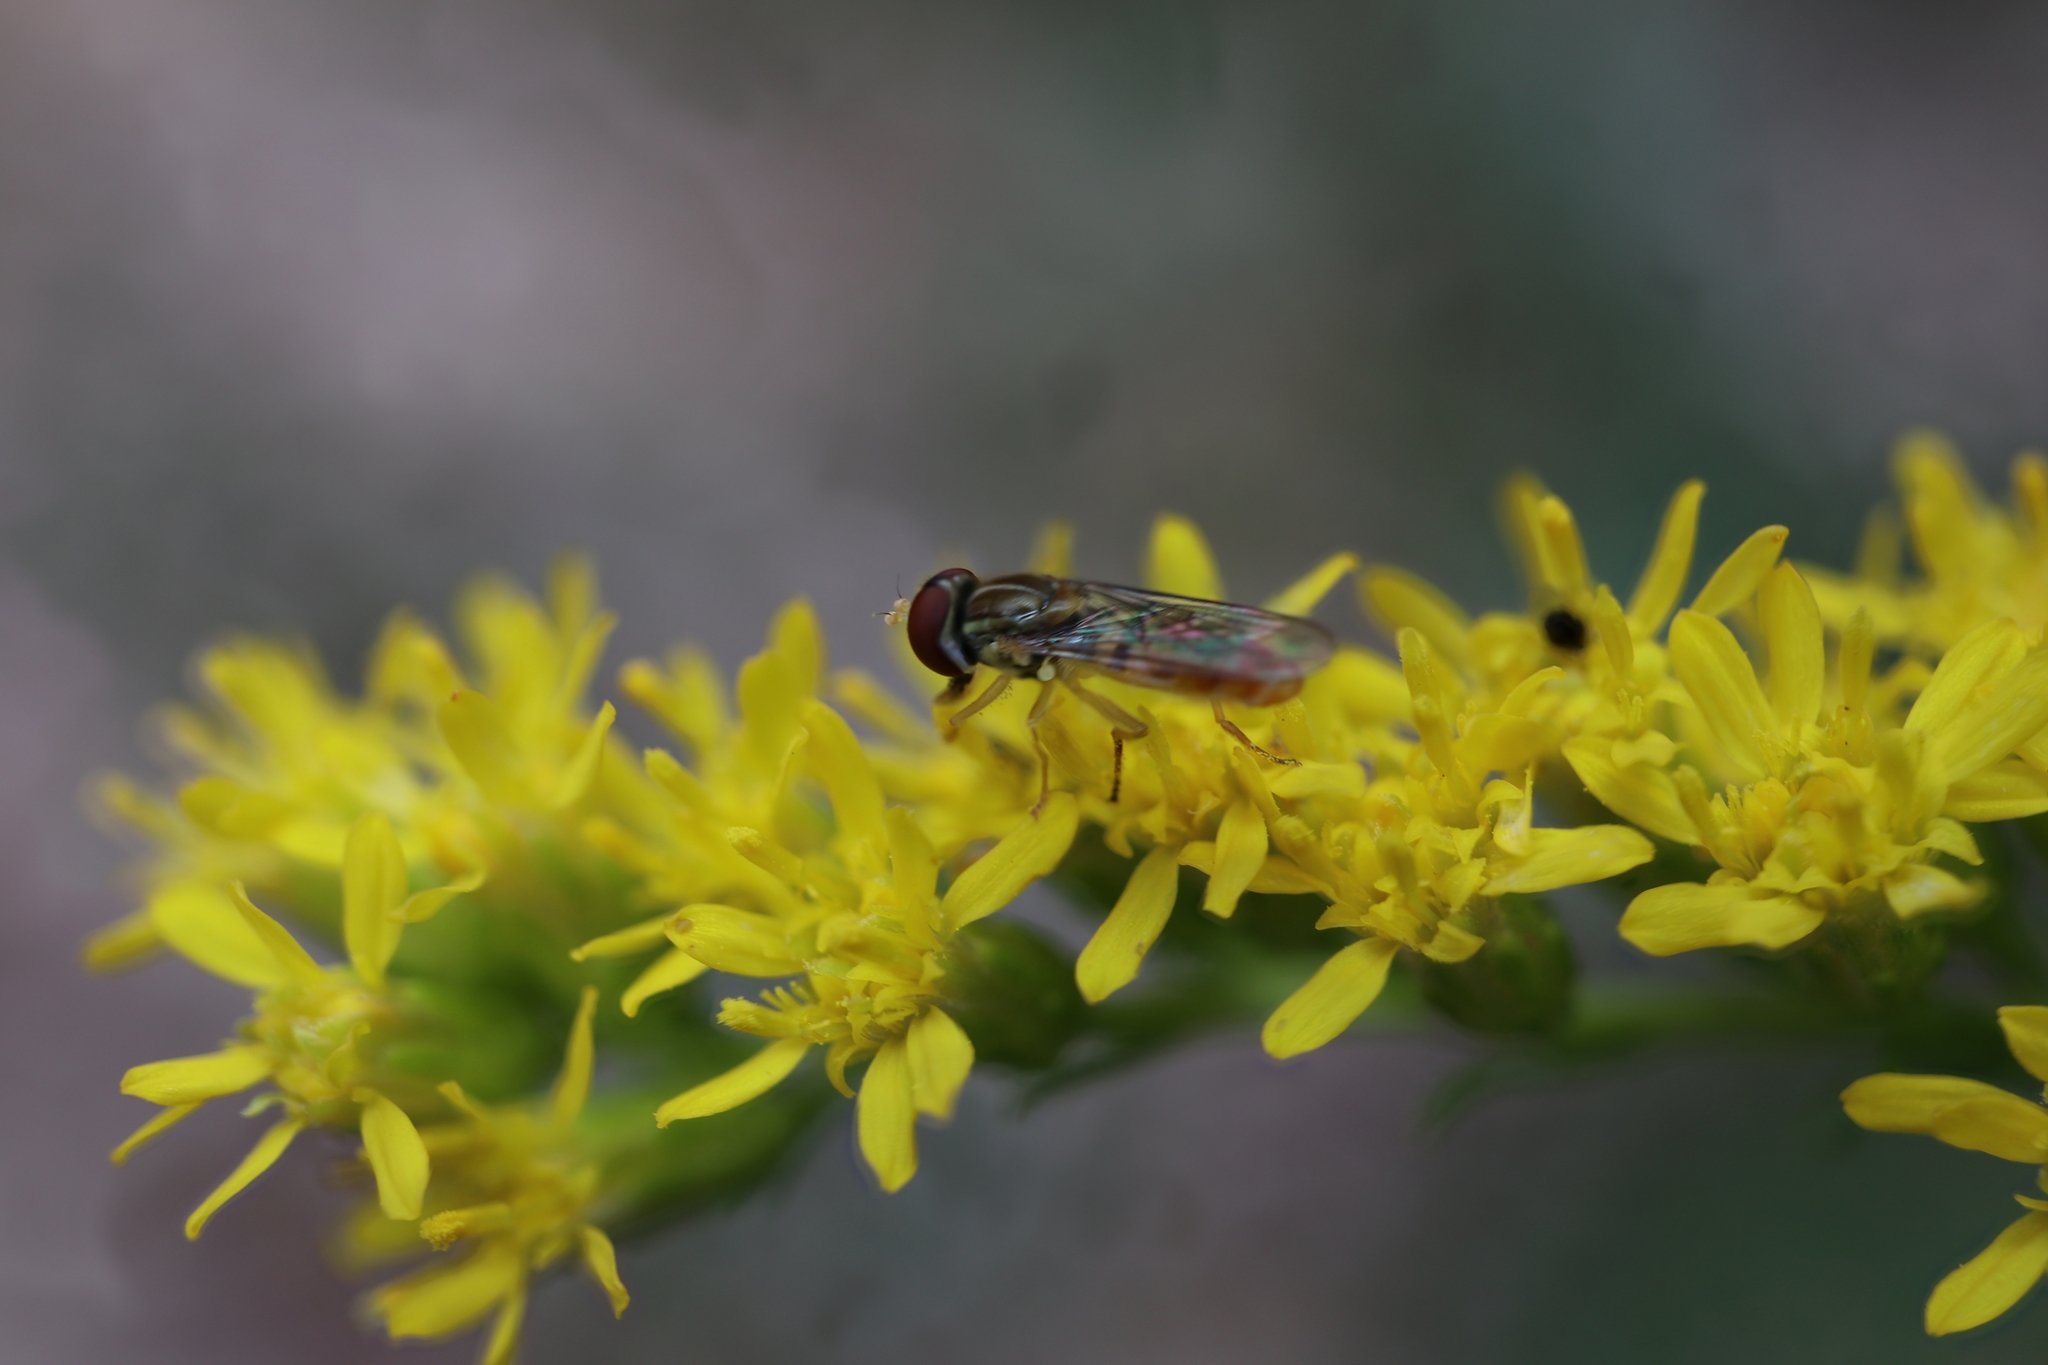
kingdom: Animalia
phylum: Arthropoda
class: Insecta
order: Diptera
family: Syrphidae
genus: Toxomerus
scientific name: Toxomerus marginatus
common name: Syrphid fly
